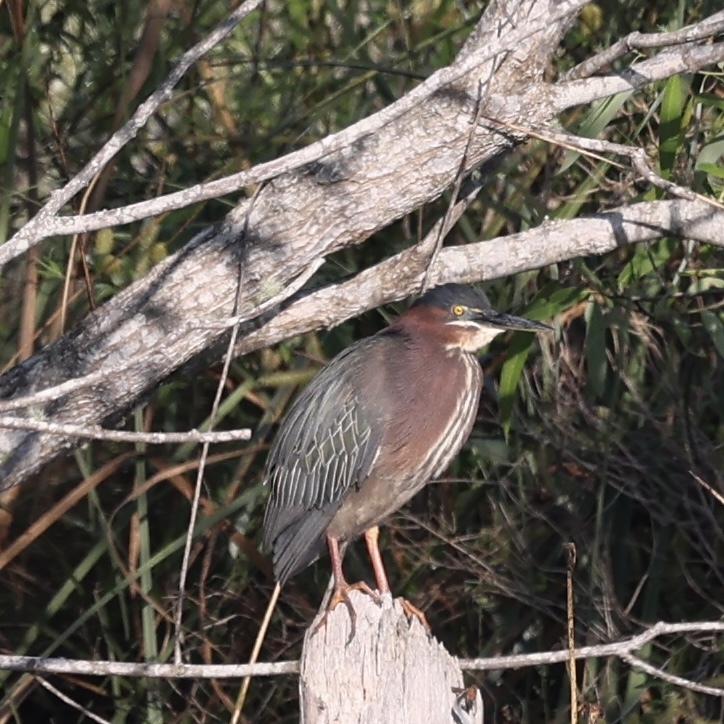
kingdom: Animalia
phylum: Chordata
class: Aves
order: Pelecaniformes
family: Ardeidae
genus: Butorides
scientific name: Butorides virescens
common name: Green heron
